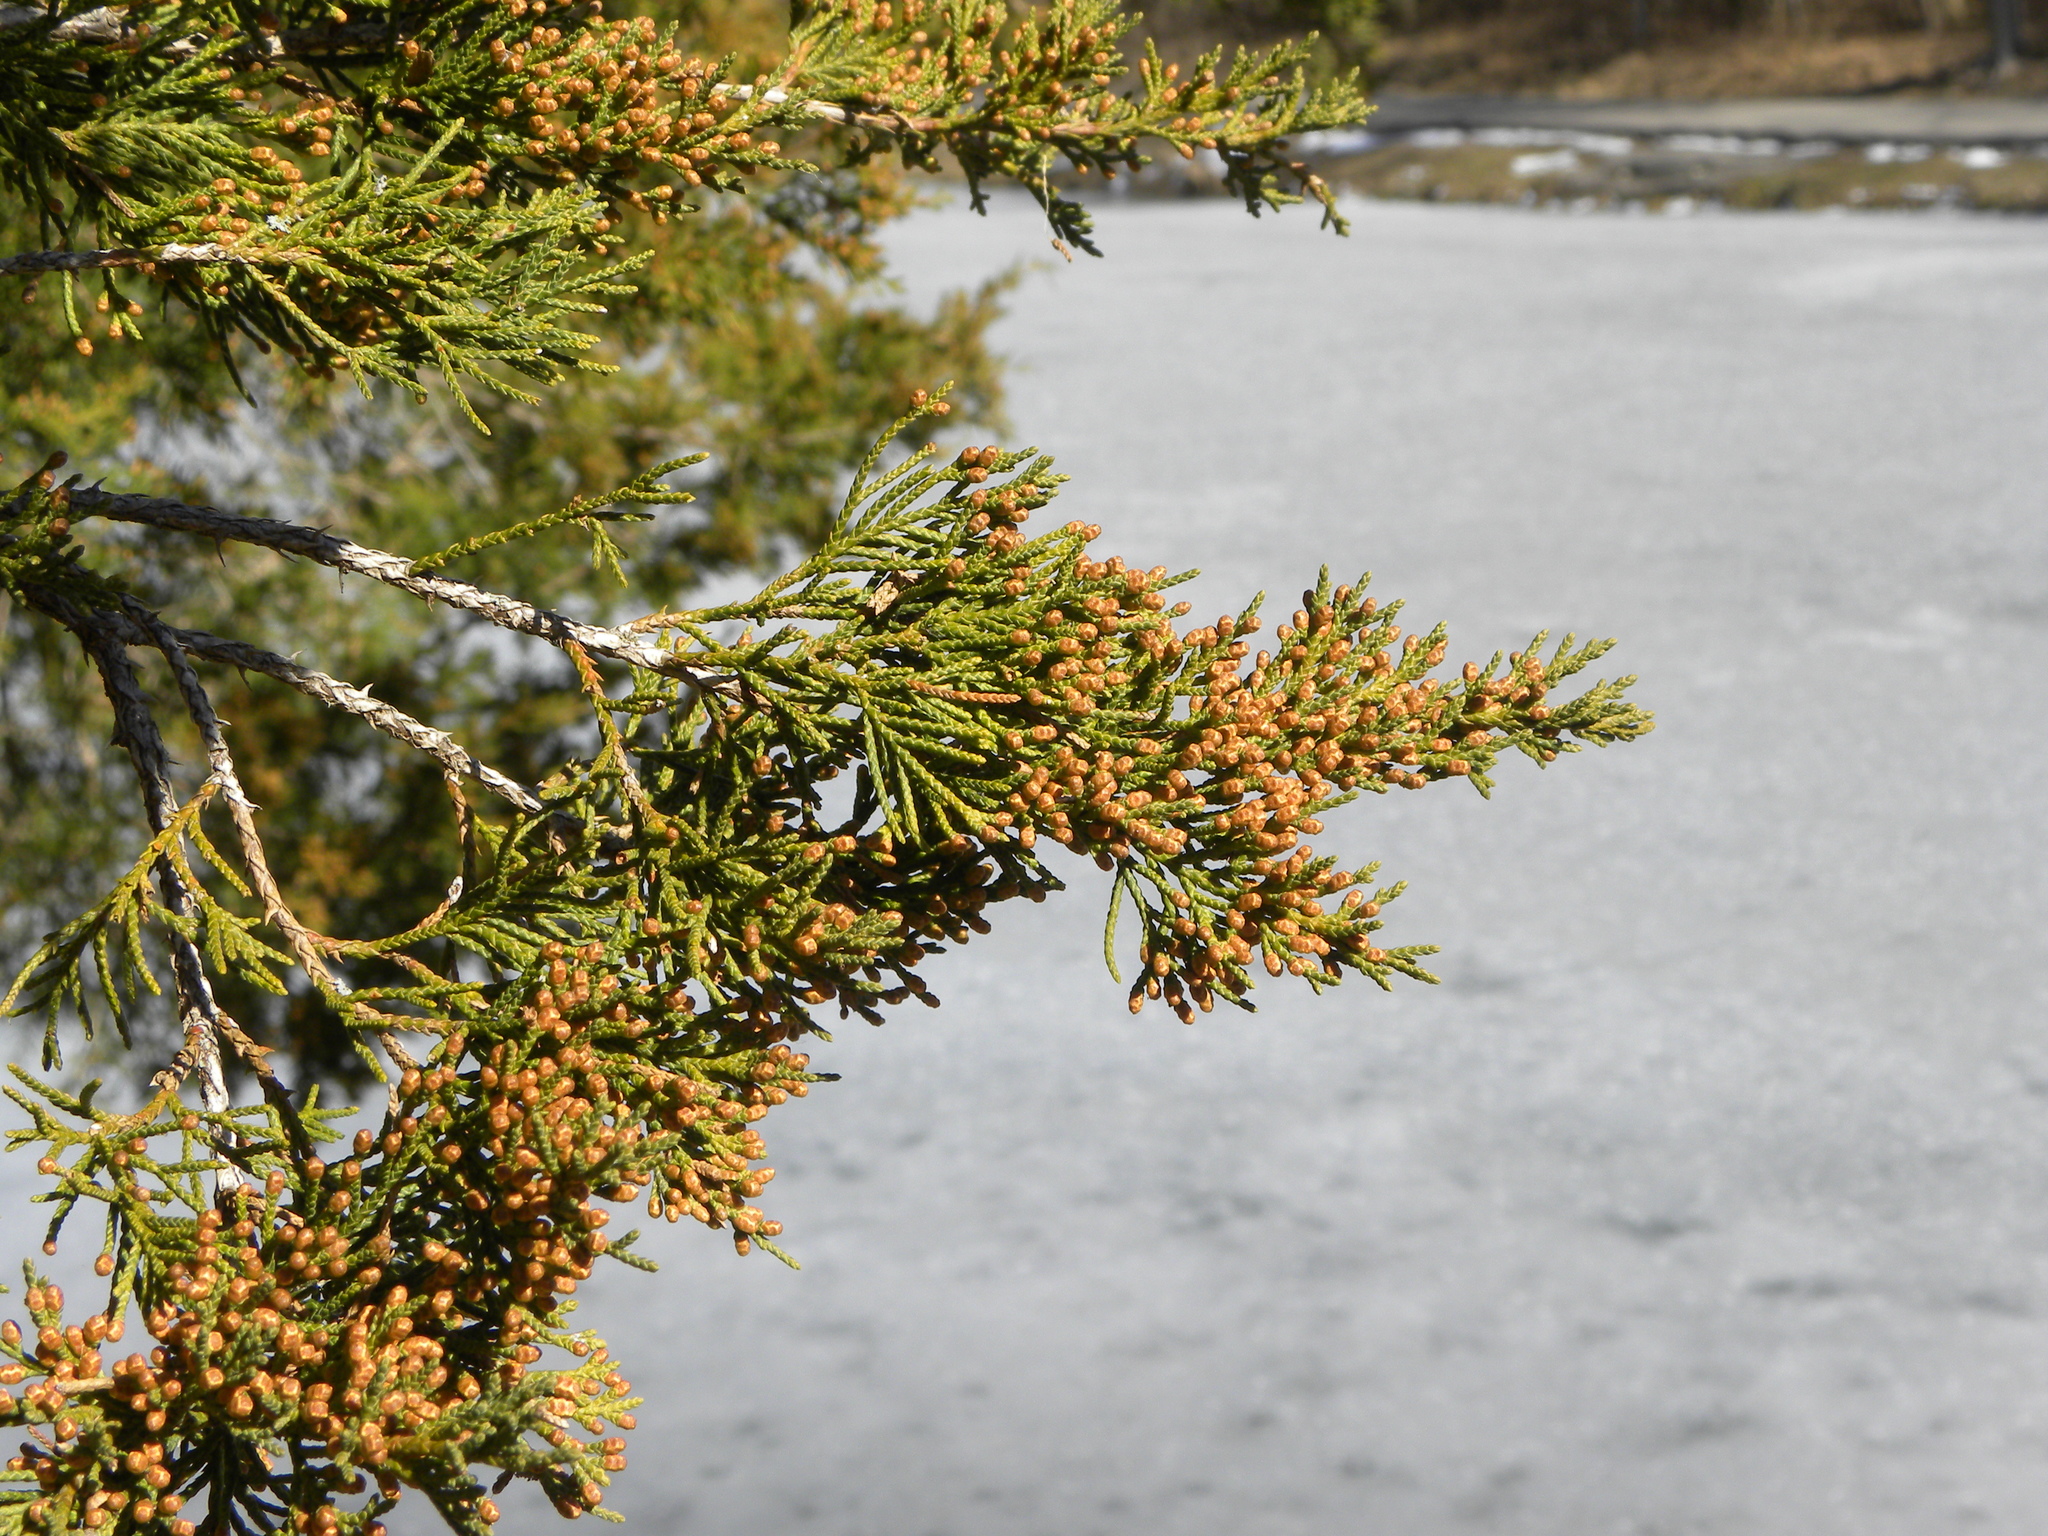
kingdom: Plantae
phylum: Tracheophyta
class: Pinopsida
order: Pinales
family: Cupressaceae
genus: Juniperus
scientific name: Juniperus virginiana
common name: Red juniper
